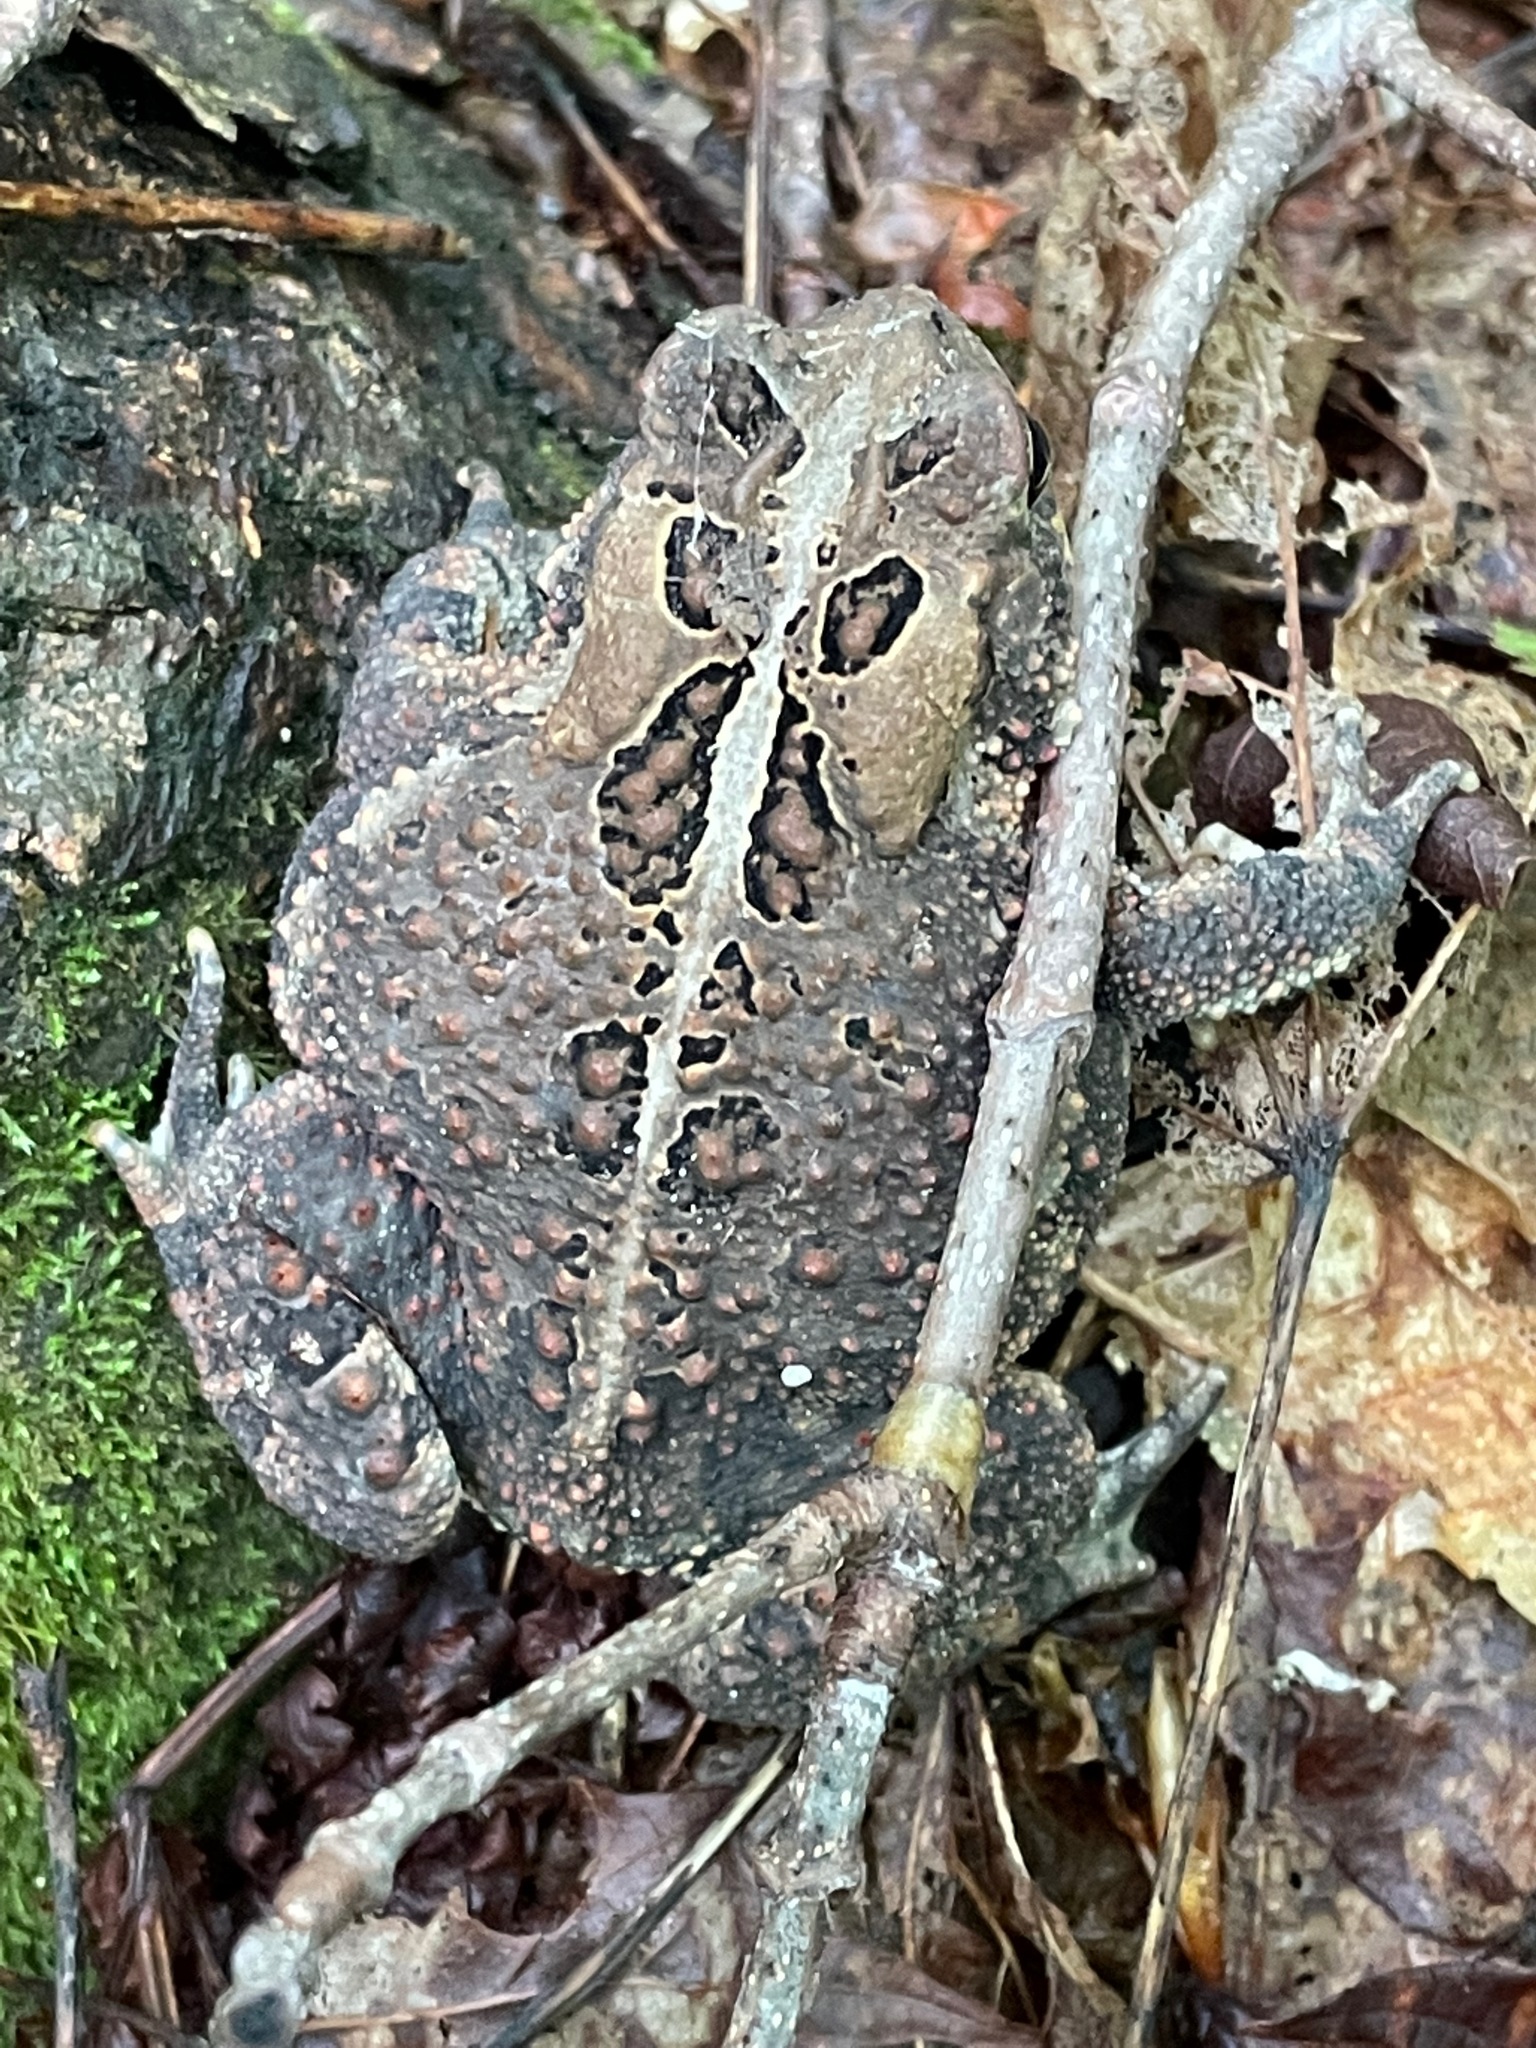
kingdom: Animalia
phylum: Chordata
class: Amphibia
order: Anura
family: Bufonidae
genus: Anaxyrus
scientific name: Anaxyrus americanus
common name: American toad
